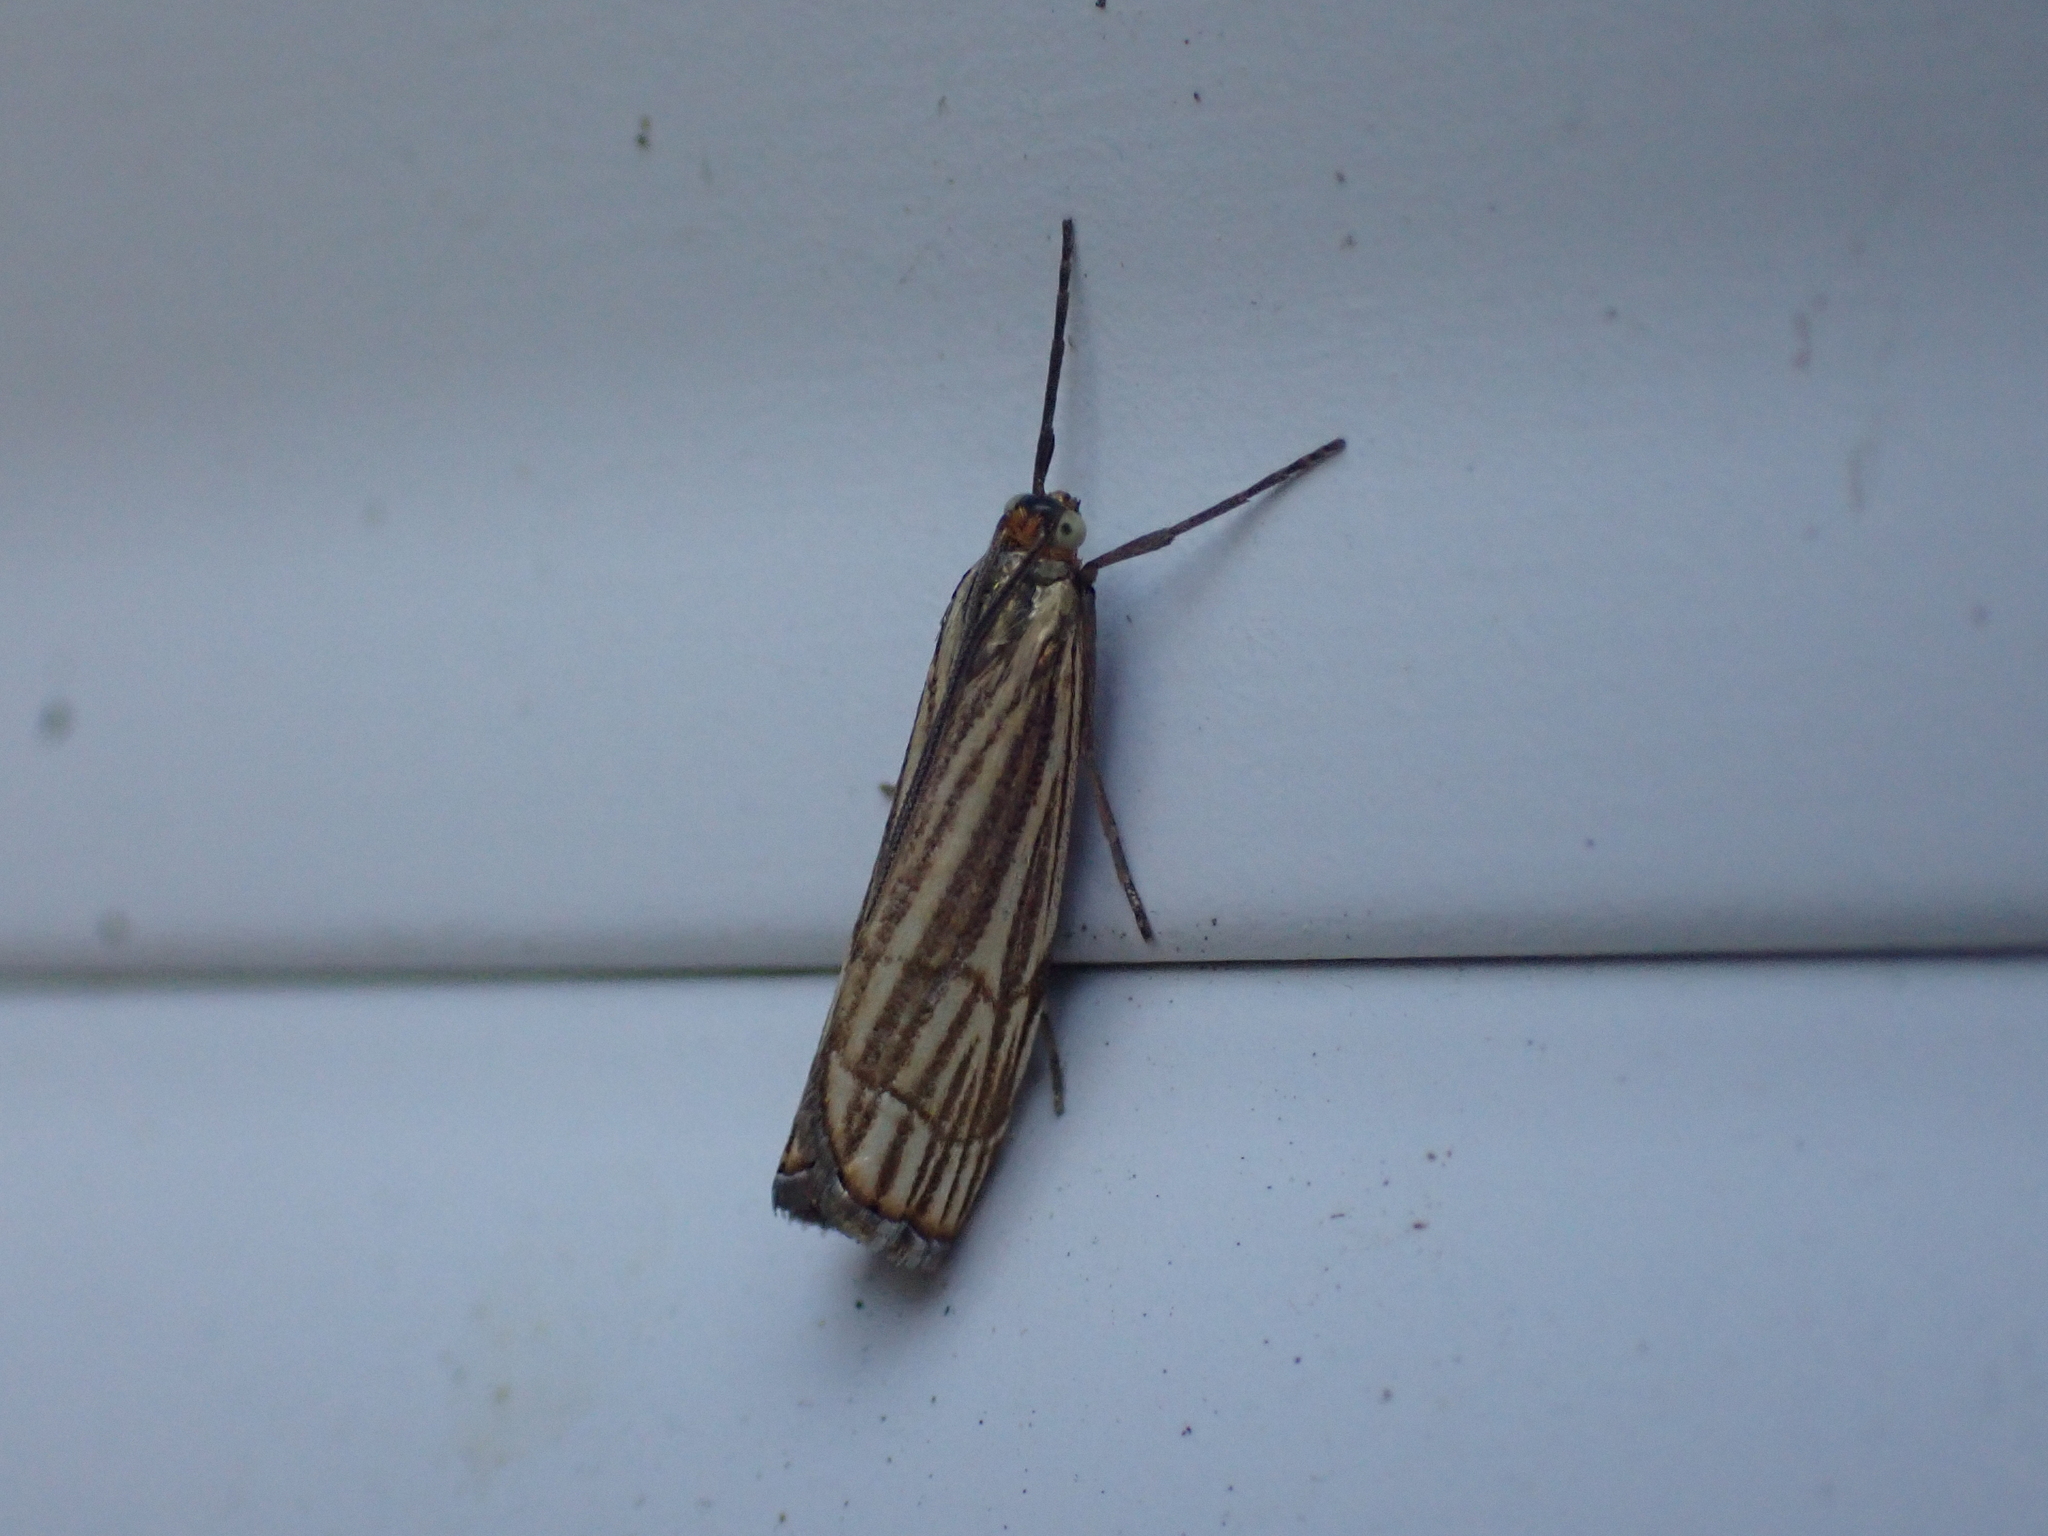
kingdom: Animalia
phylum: Arthropoda
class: Insecta
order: Lepidoptera
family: Crambidae
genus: Chrysocrambus
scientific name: Chrysocrambus Chrysocramboides craterellus
